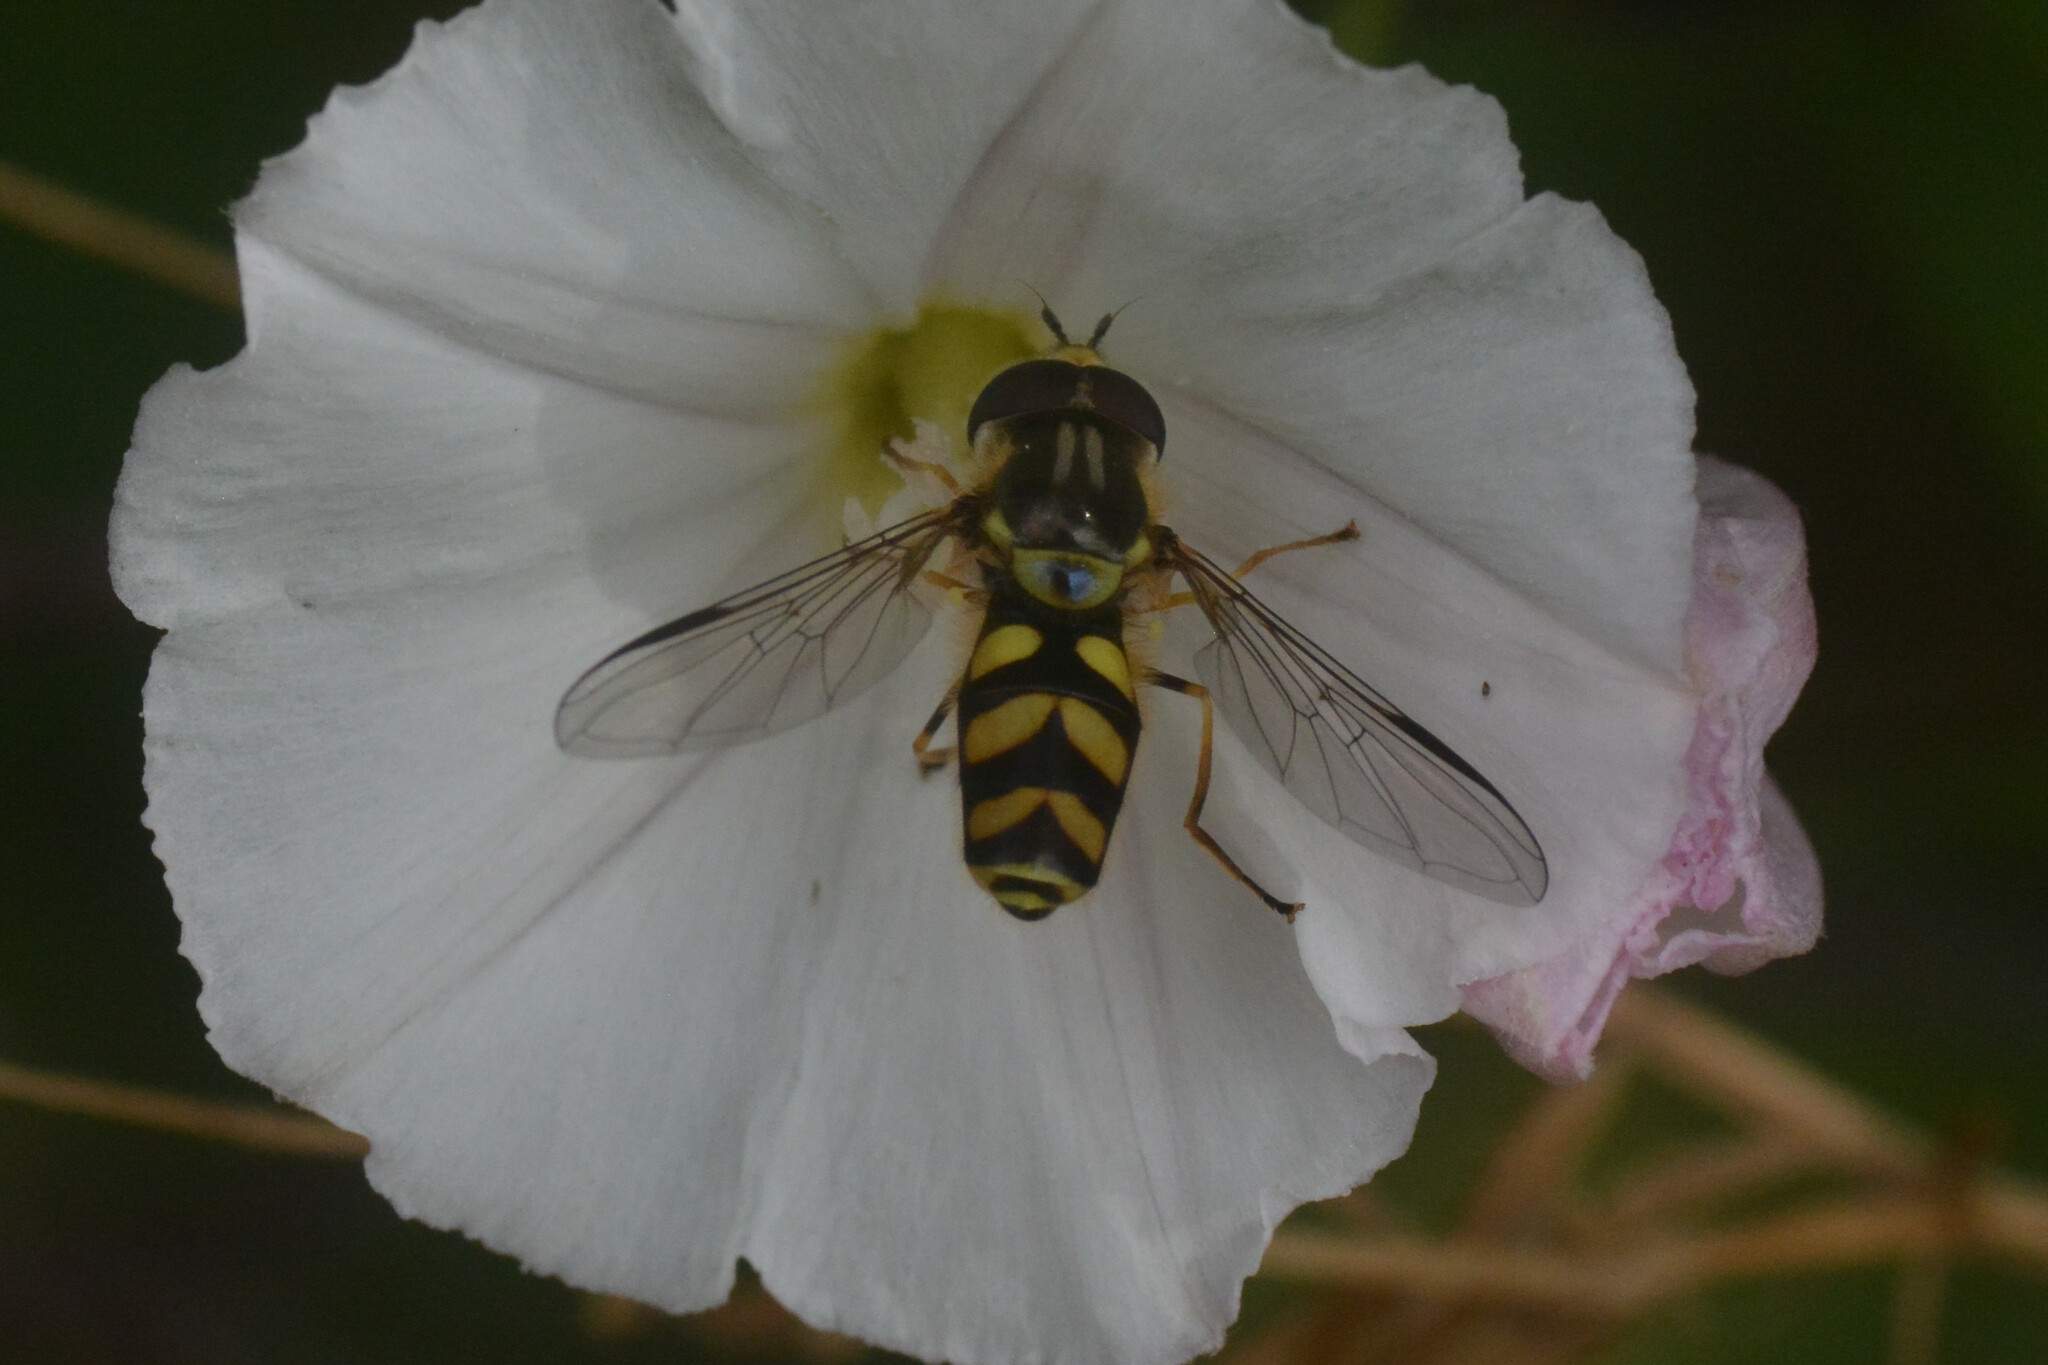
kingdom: Animalia
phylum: Arthropoda
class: Insecta
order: Diptera
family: Syrphidae
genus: Dasysyrphus
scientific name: Dasysyrphus albostriatus
